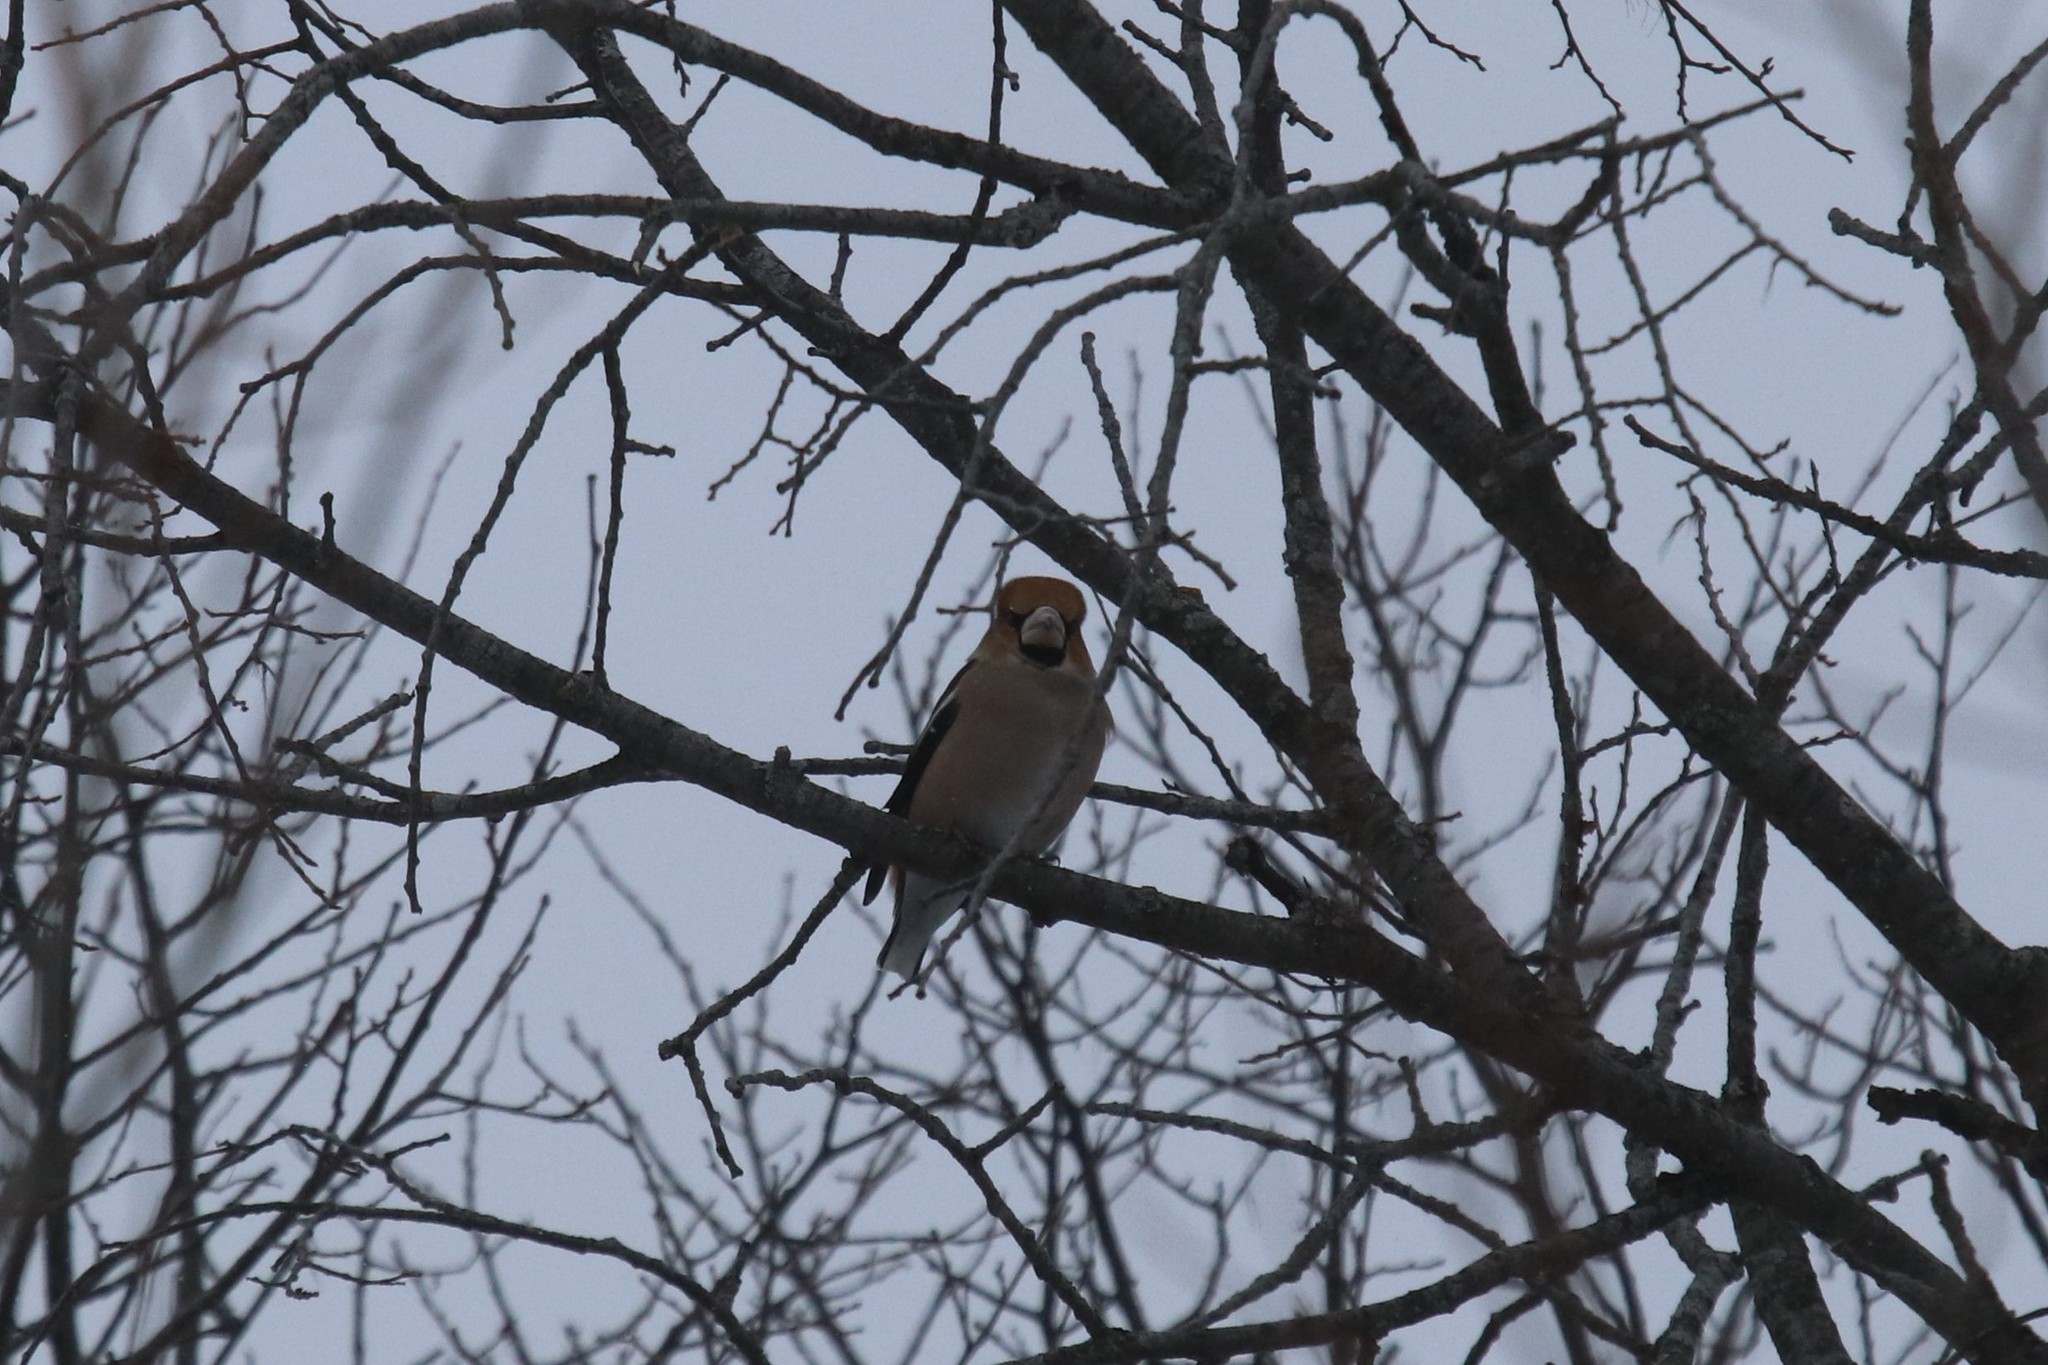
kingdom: Animalia
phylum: Chordata
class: Aves
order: Passeriformes
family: Fringillidae
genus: Coccothraustes
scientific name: Coccothraustes coccothraustes
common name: Hawfinch
